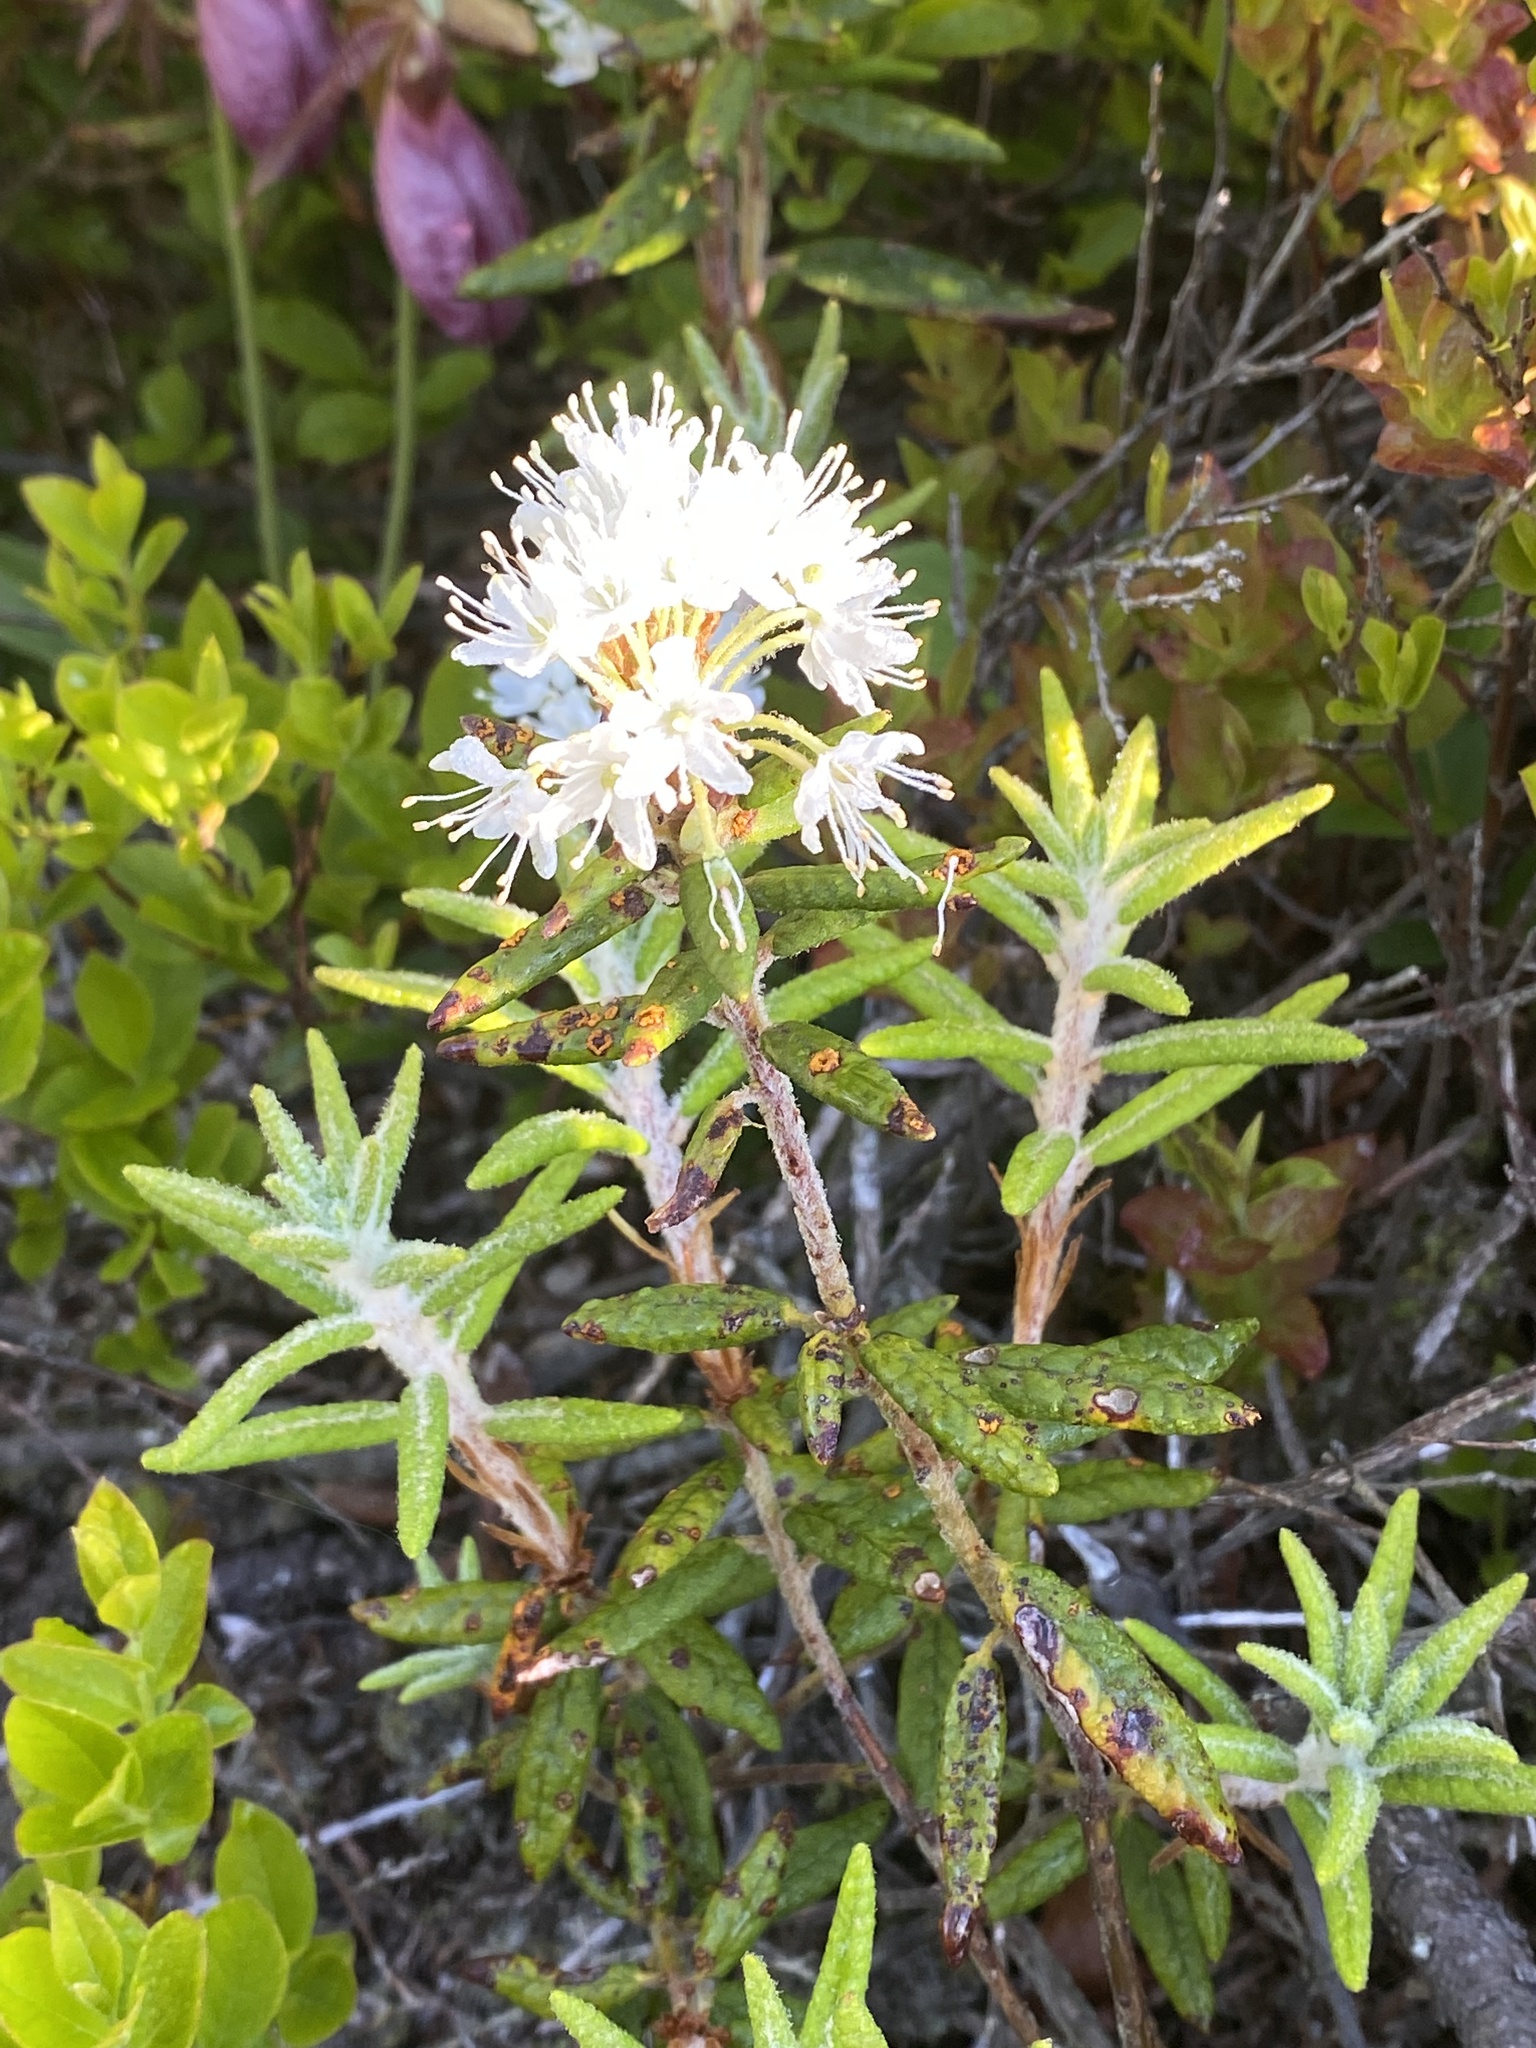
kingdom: Plantae
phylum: Tracheophyta
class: Magnoliopsida
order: Ericales
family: Ericaceae
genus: Rhododendron
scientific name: Rhododendron groenlandicum
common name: Bog labrador tea
